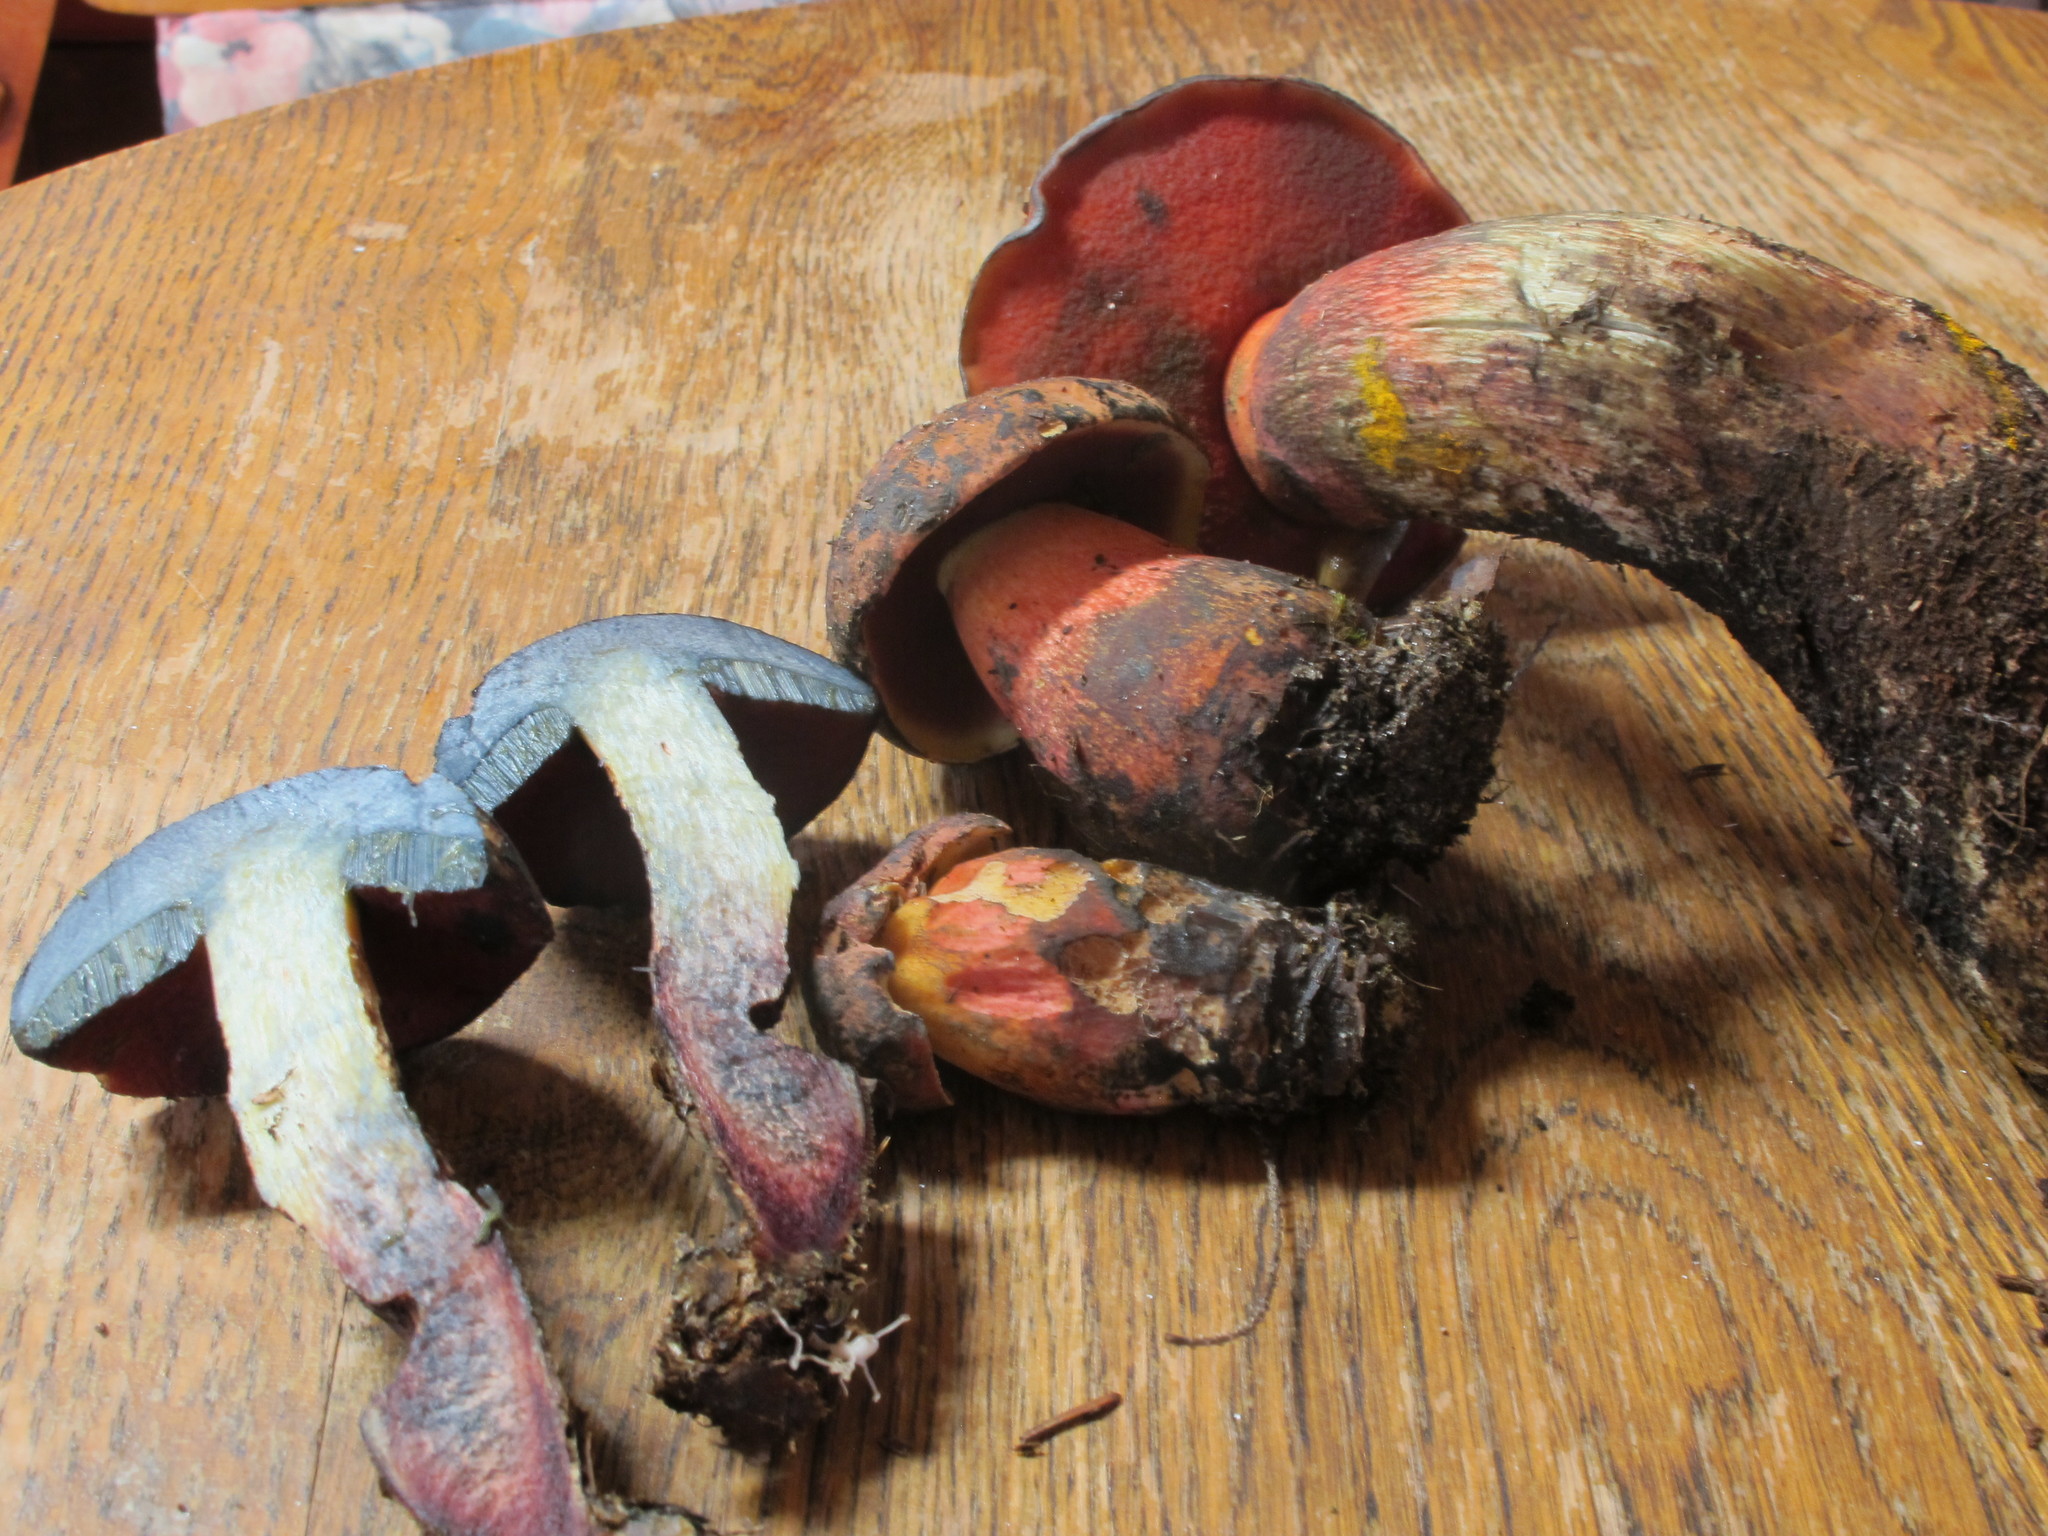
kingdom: Fungi
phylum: Basidiomycota
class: Agaricomycetes
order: Boletales
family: Boletaceae
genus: Boletus
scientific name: Boletus subvelutipes
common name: Red-mouth bolete
